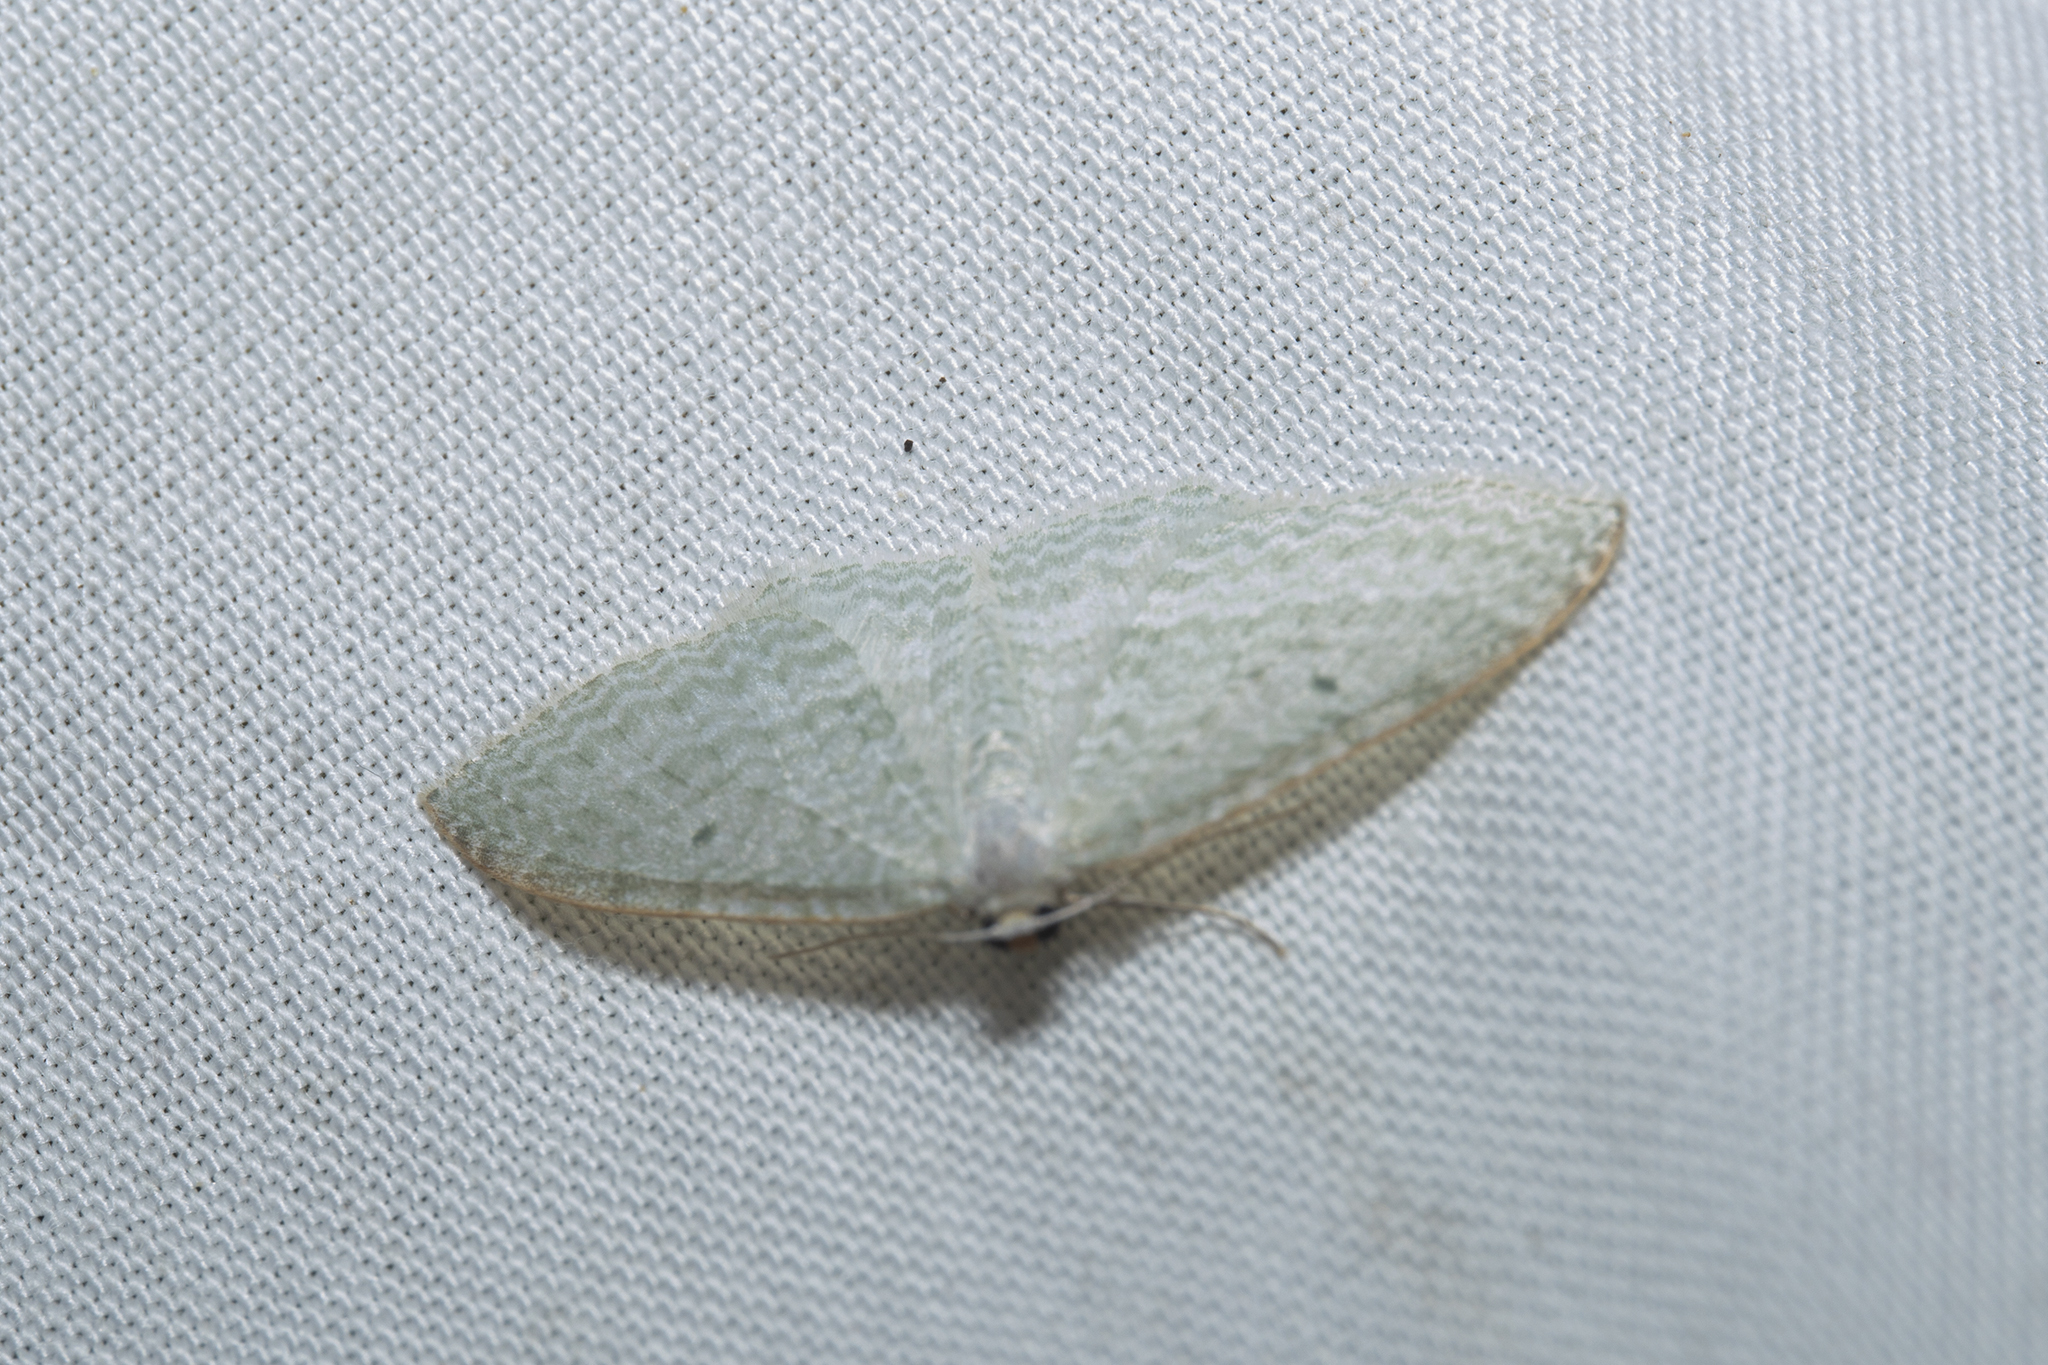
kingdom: Animalia
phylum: Arthropoda
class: Insecta
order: Lepidoptera
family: Geometridae
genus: Poecilasthena
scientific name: Poecilasthena pulchraria
